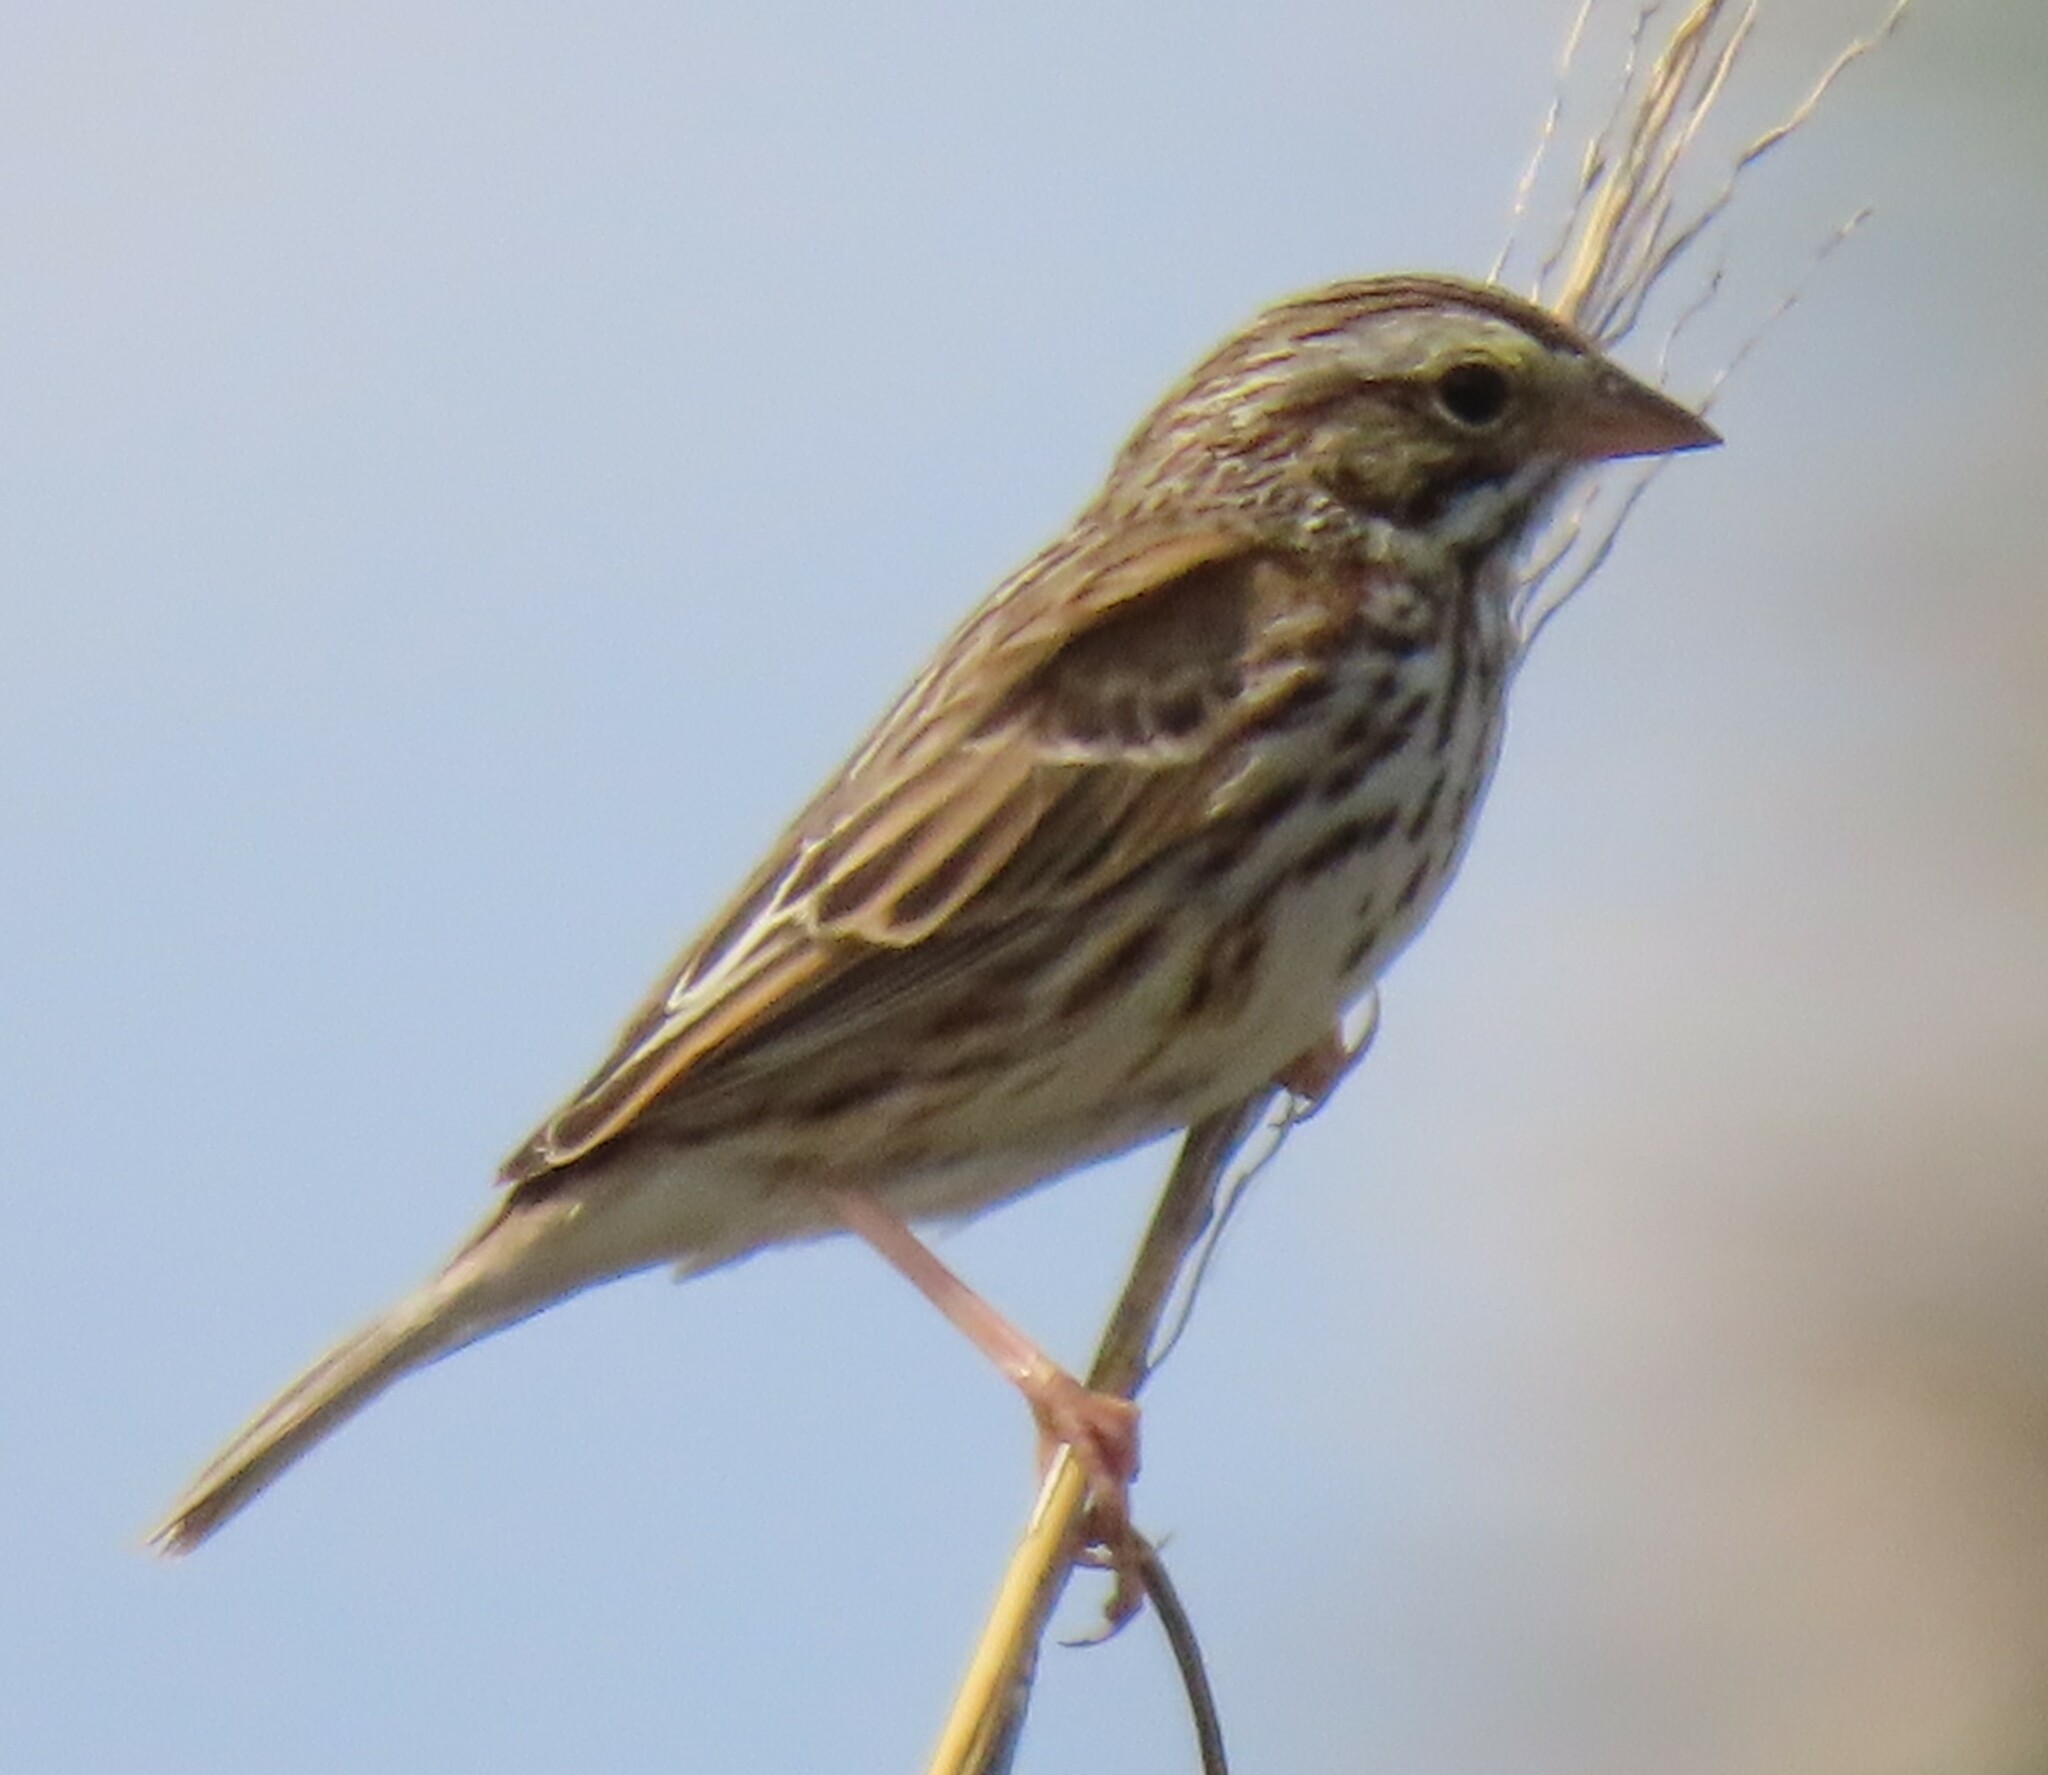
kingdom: Animalia
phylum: Chordata
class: Aves
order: Passeriformes
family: Passerellidae
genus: Passerculus
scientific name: Passerculus sandwichensis
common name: Savannah sparrow
